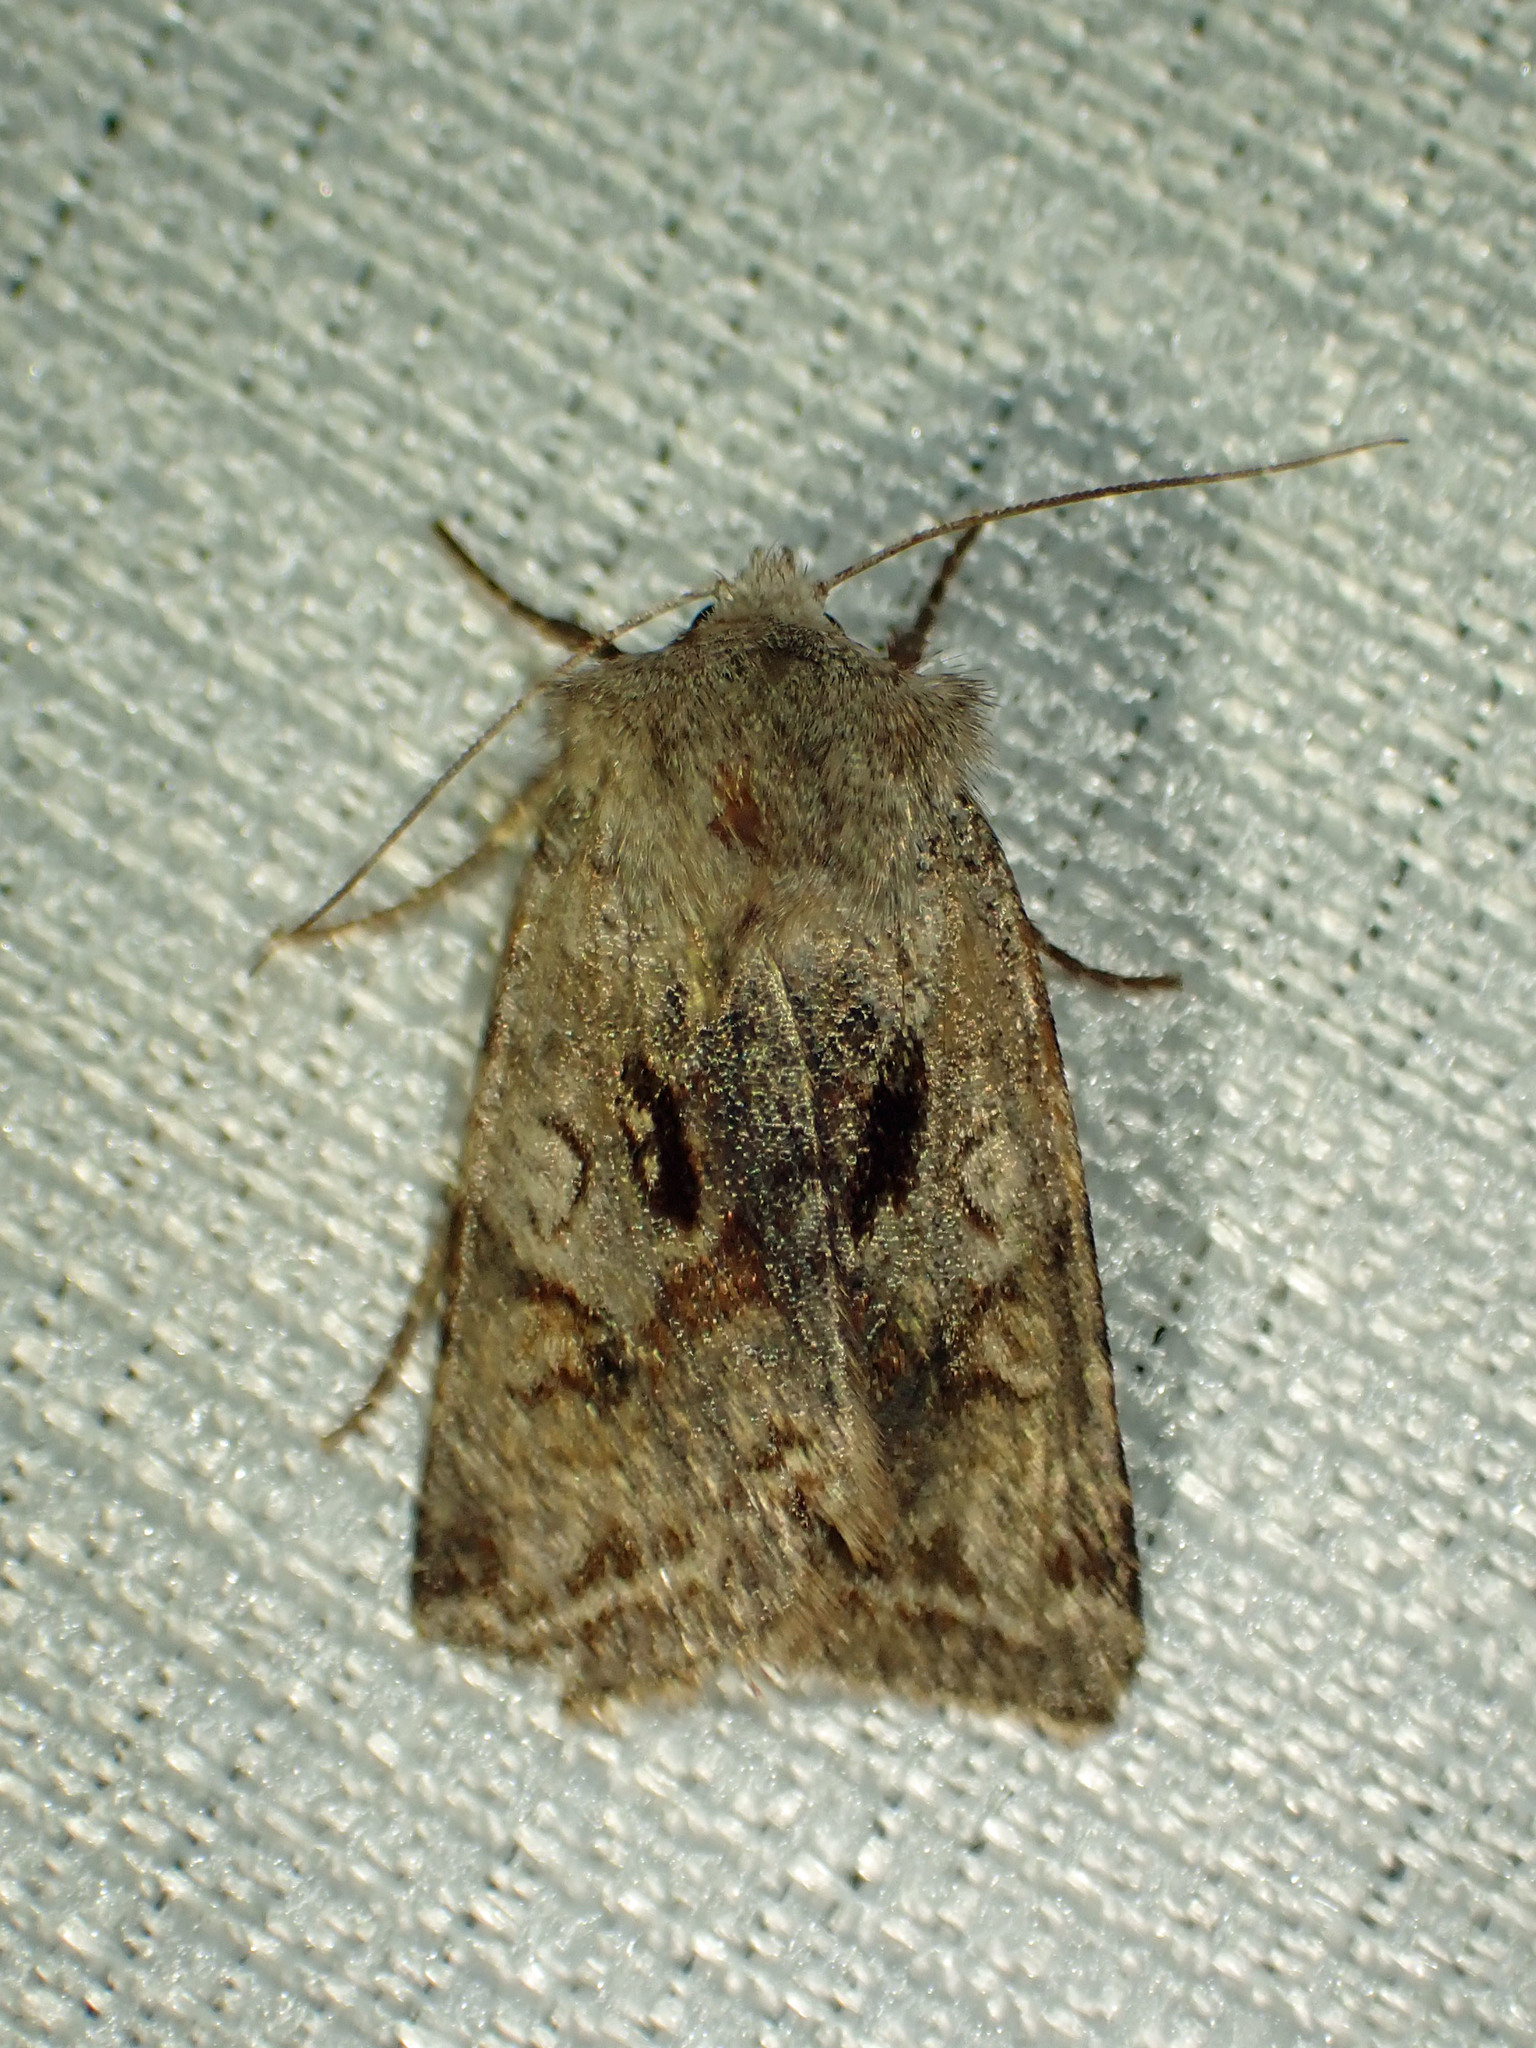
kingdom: Animalia
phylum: Arthropoda
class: Insecta
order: Lepidoptera
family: Noctuidae
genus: Cerastis
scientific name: Cerastis salicarum
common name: Willow dart
